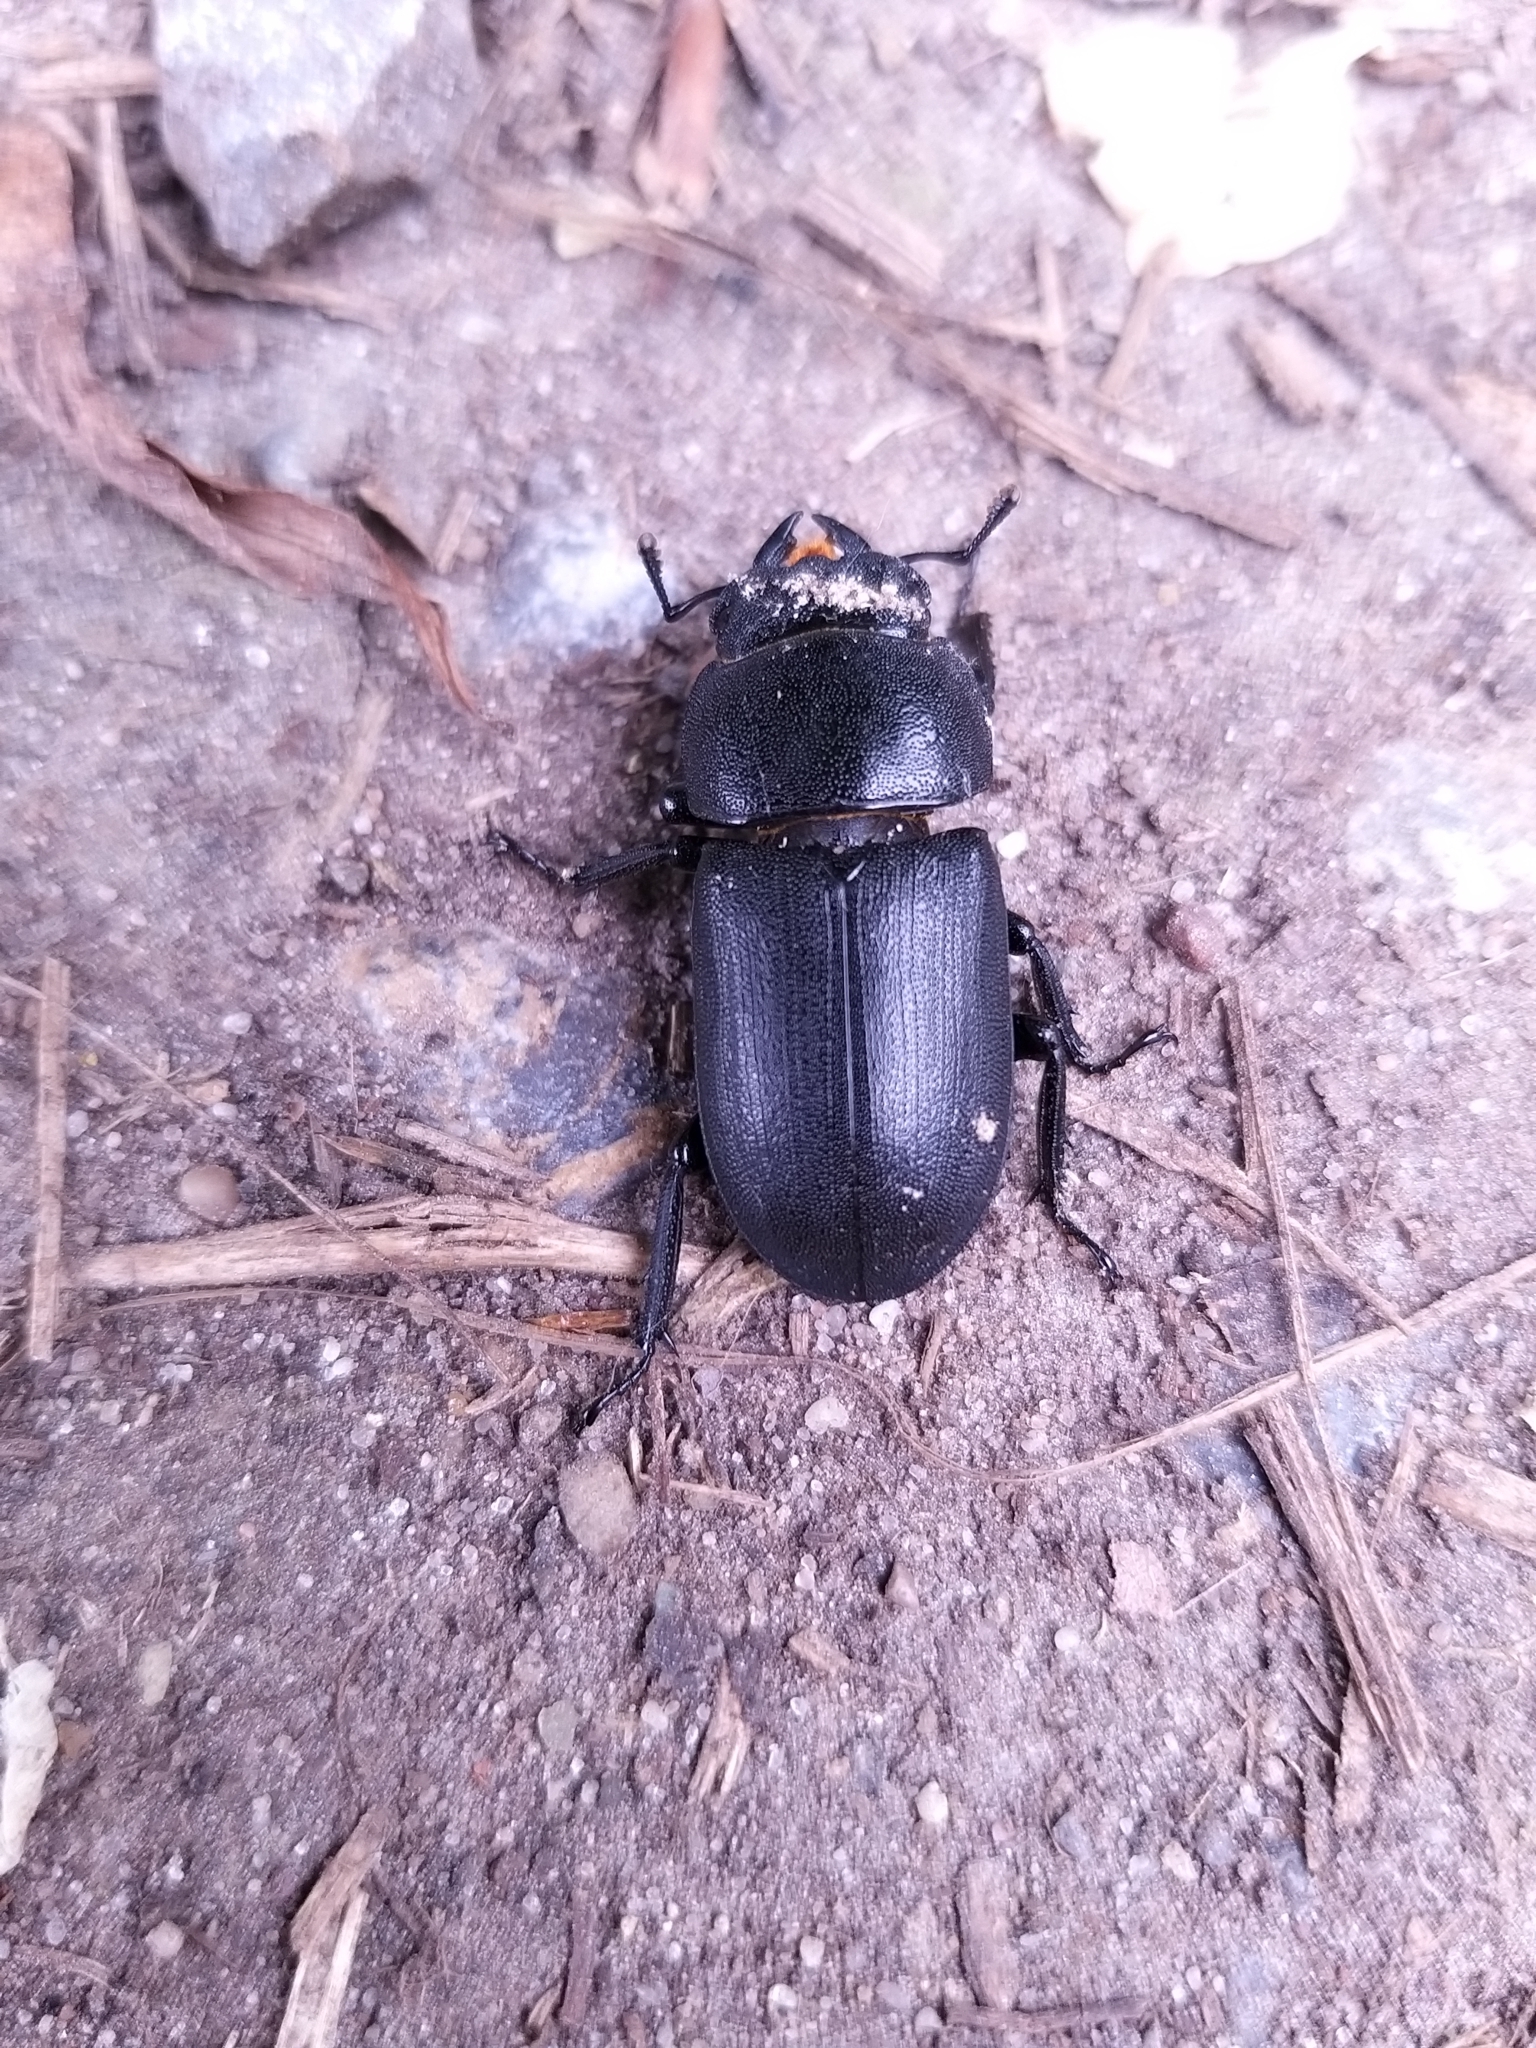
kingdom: Animalia
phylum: Arthropoda
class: Insecta
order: Coleoptera
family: Lucanidae
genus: Dorcus
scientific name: Dorcus parallelipipedus
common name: Lesser stag beetle
